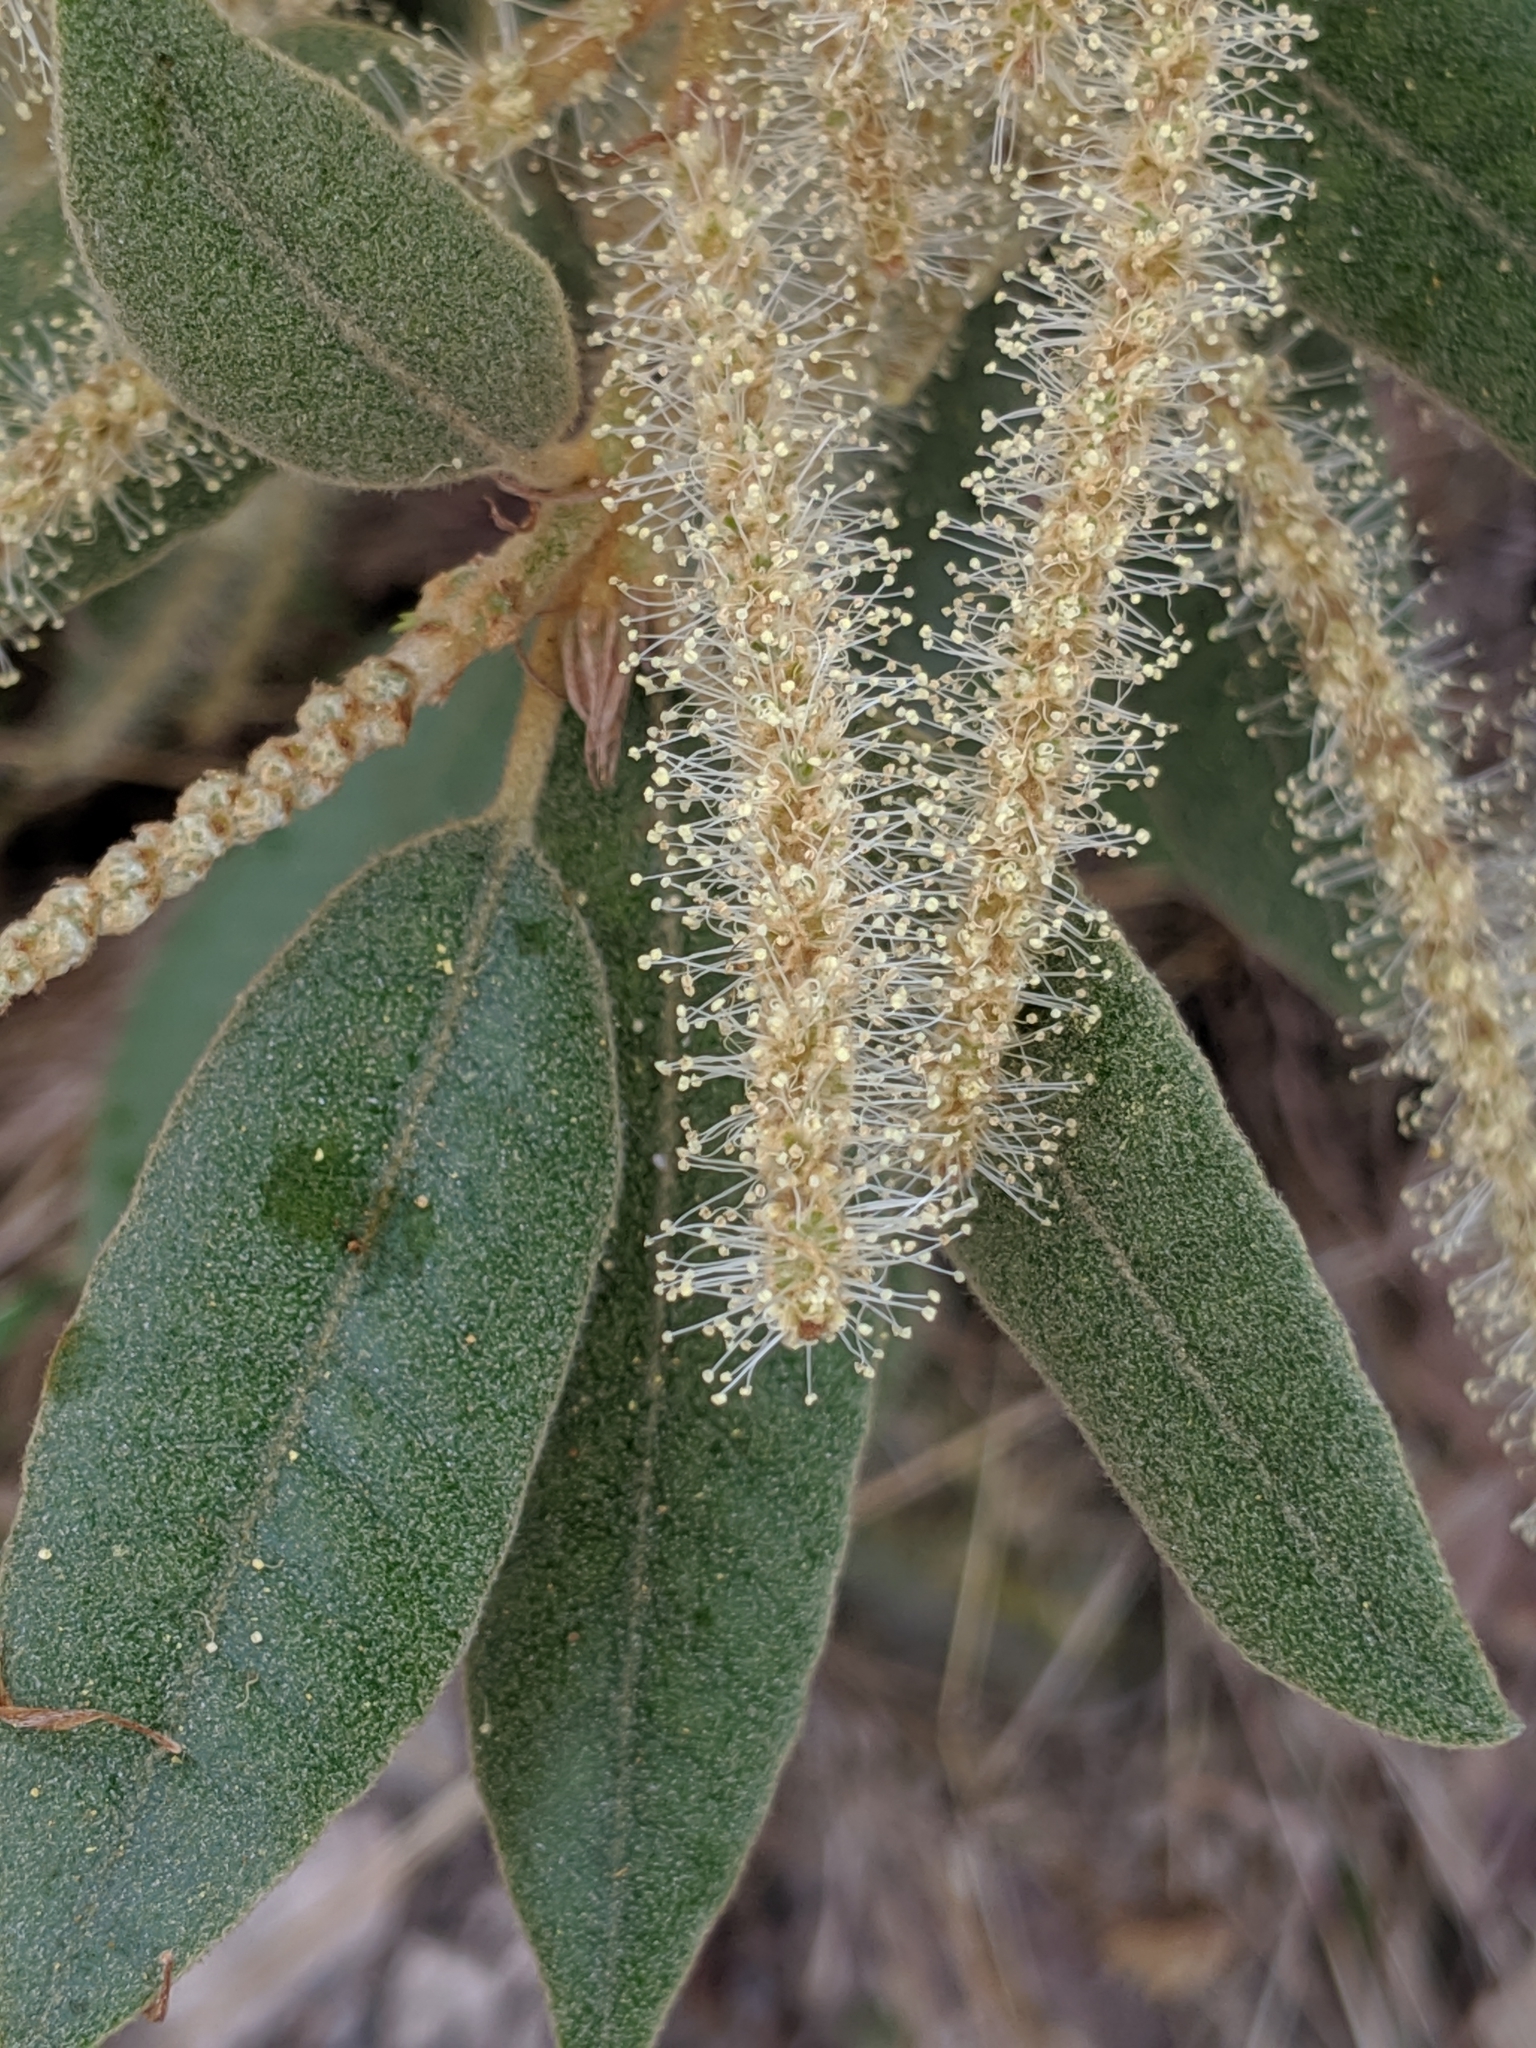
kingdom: Plantae
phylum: Tracheophyta
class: Magnoliopsida
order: Fagales
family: Fagaceae
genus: Notholithocarpus
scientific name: Notholithocarpus densiflorus
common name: Tan bark oak
